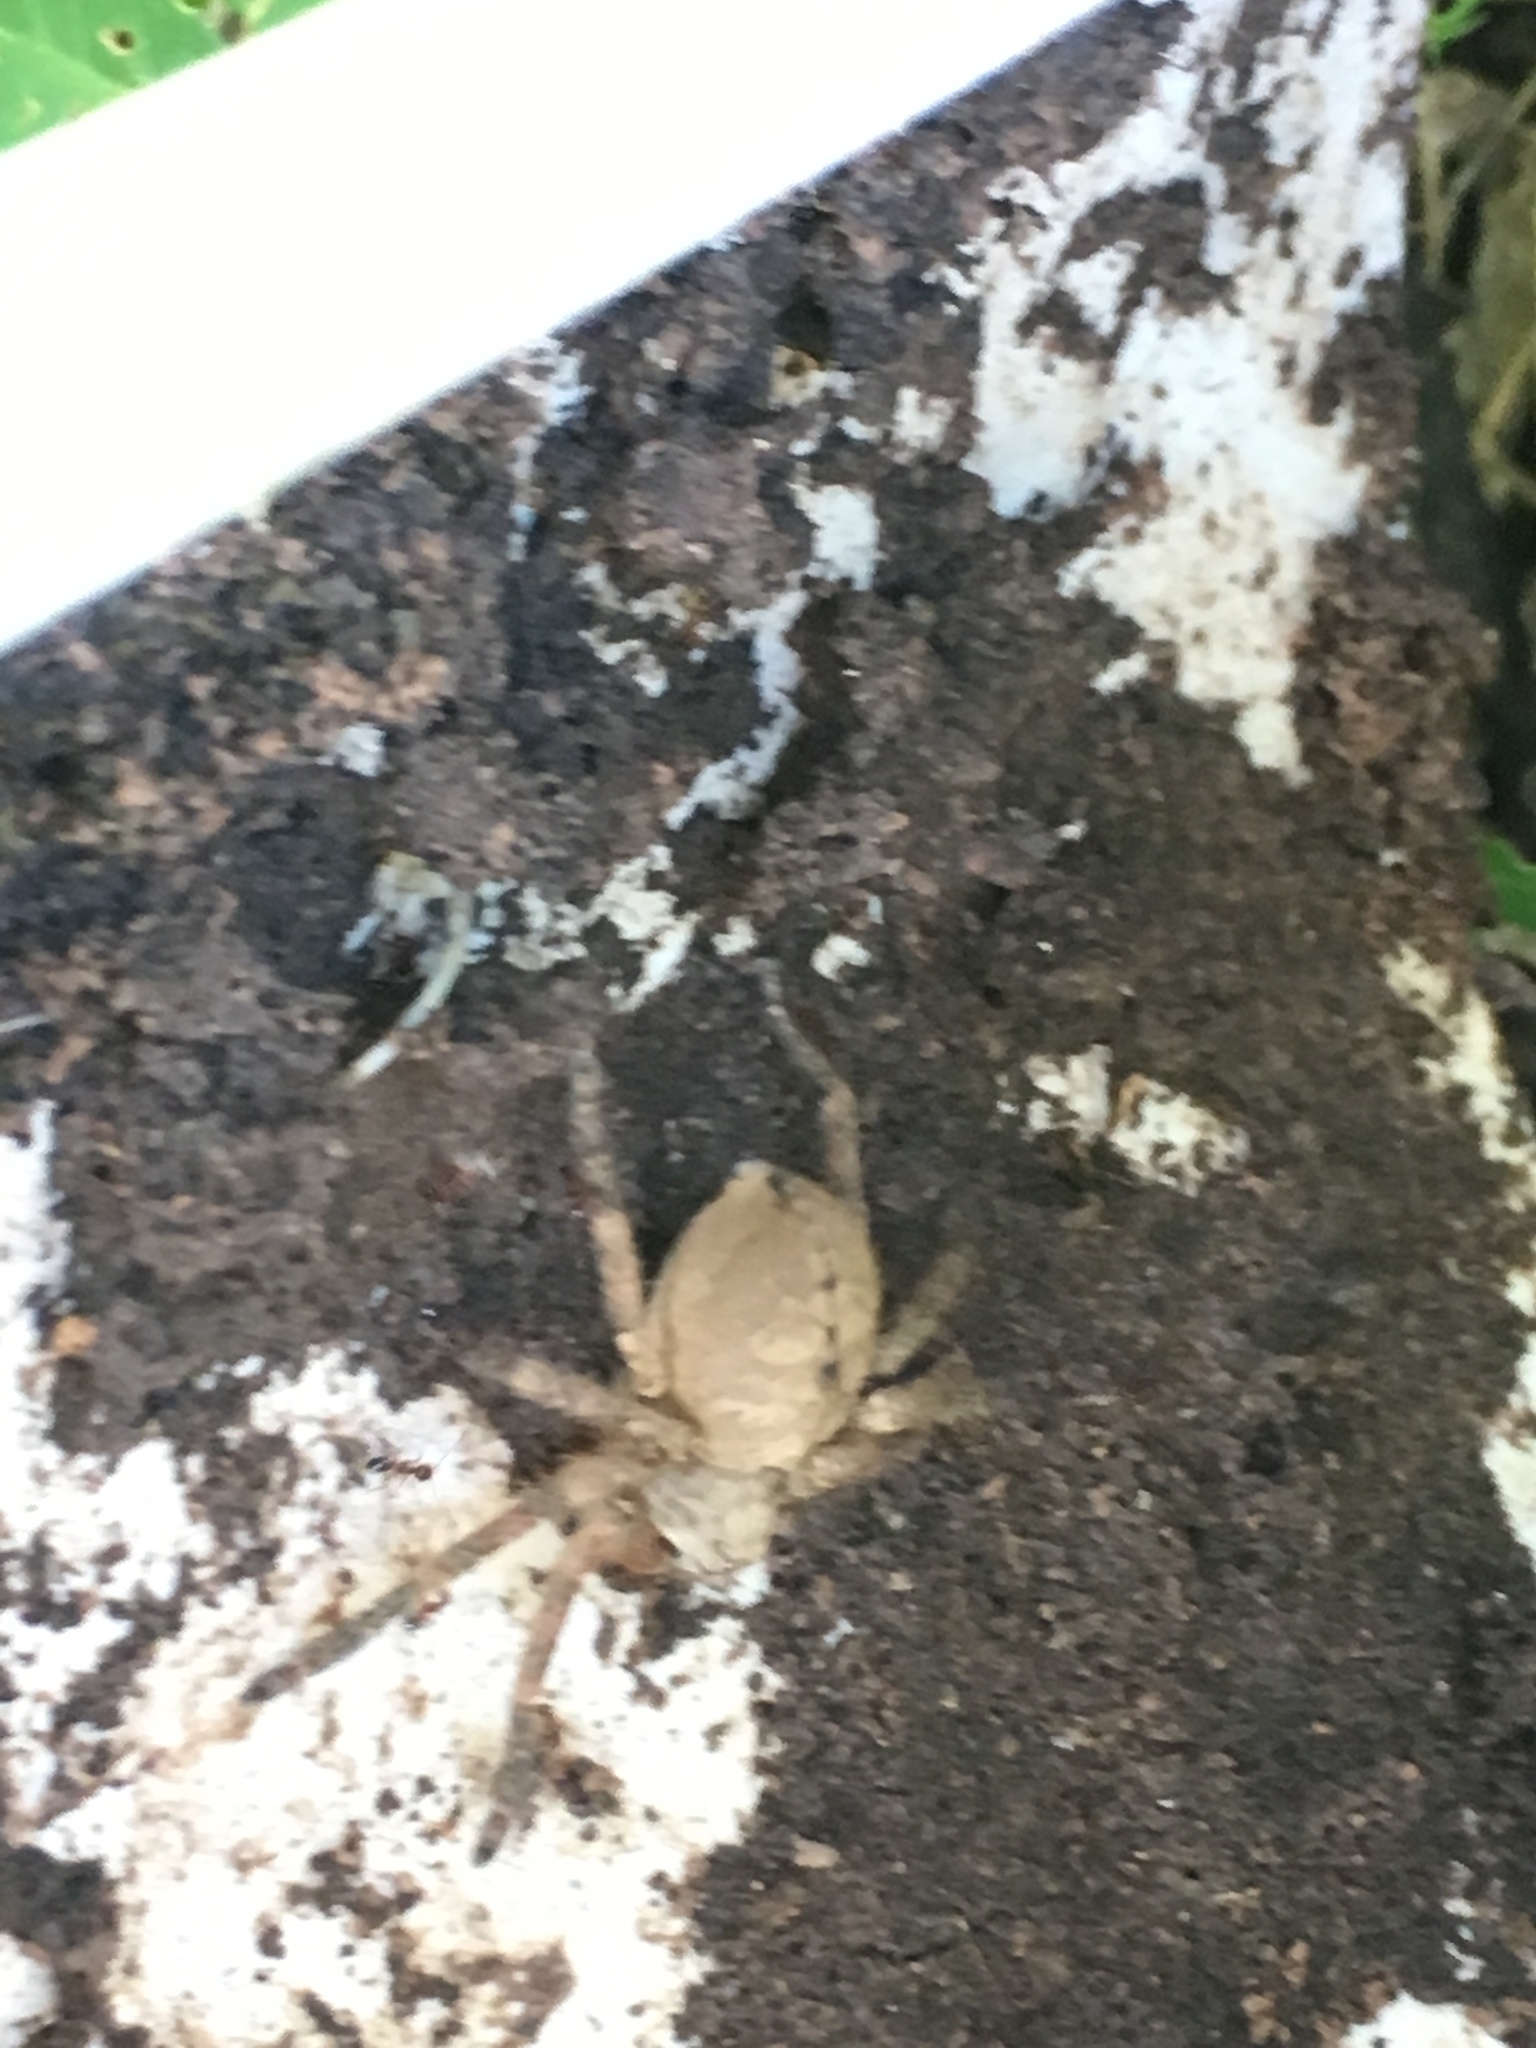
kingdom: Animalia
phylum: Arthropoda
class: Arachnida
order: Araneae
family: Sparassidae
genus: Polybetes
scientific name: Polybetes rapidus
